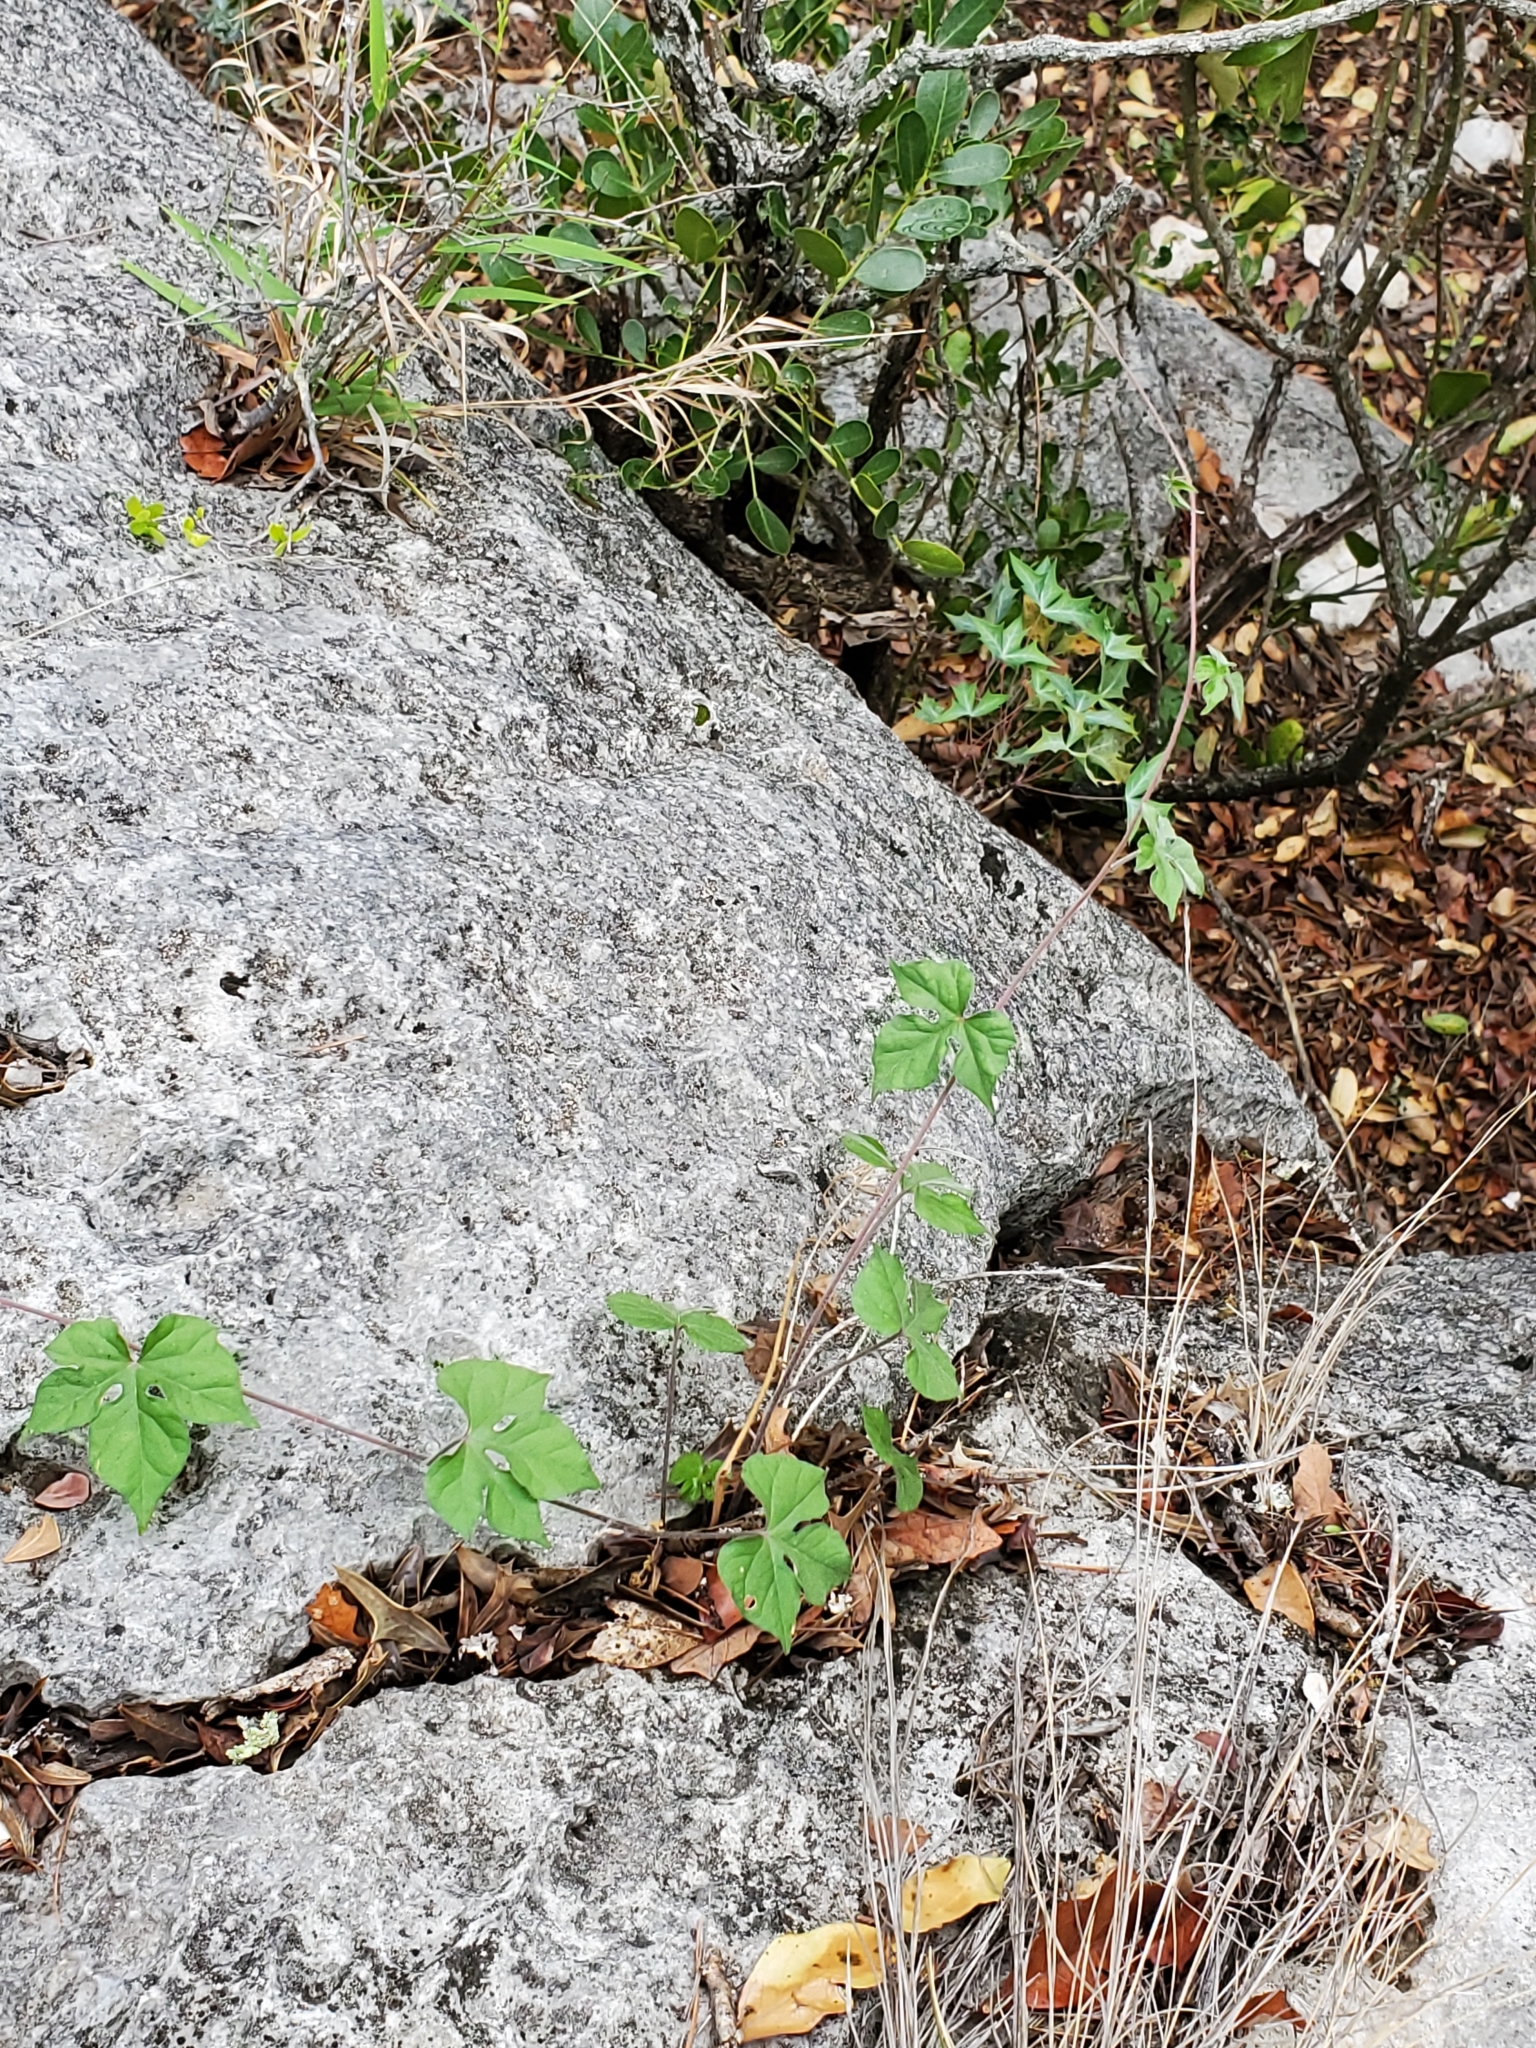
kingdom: Plantae
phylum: Tracheophyta
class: Magnoliopsida
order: Solanales
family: Convolvulaceae
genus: Ipomoea
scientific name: Ipomoea lindheimeri
